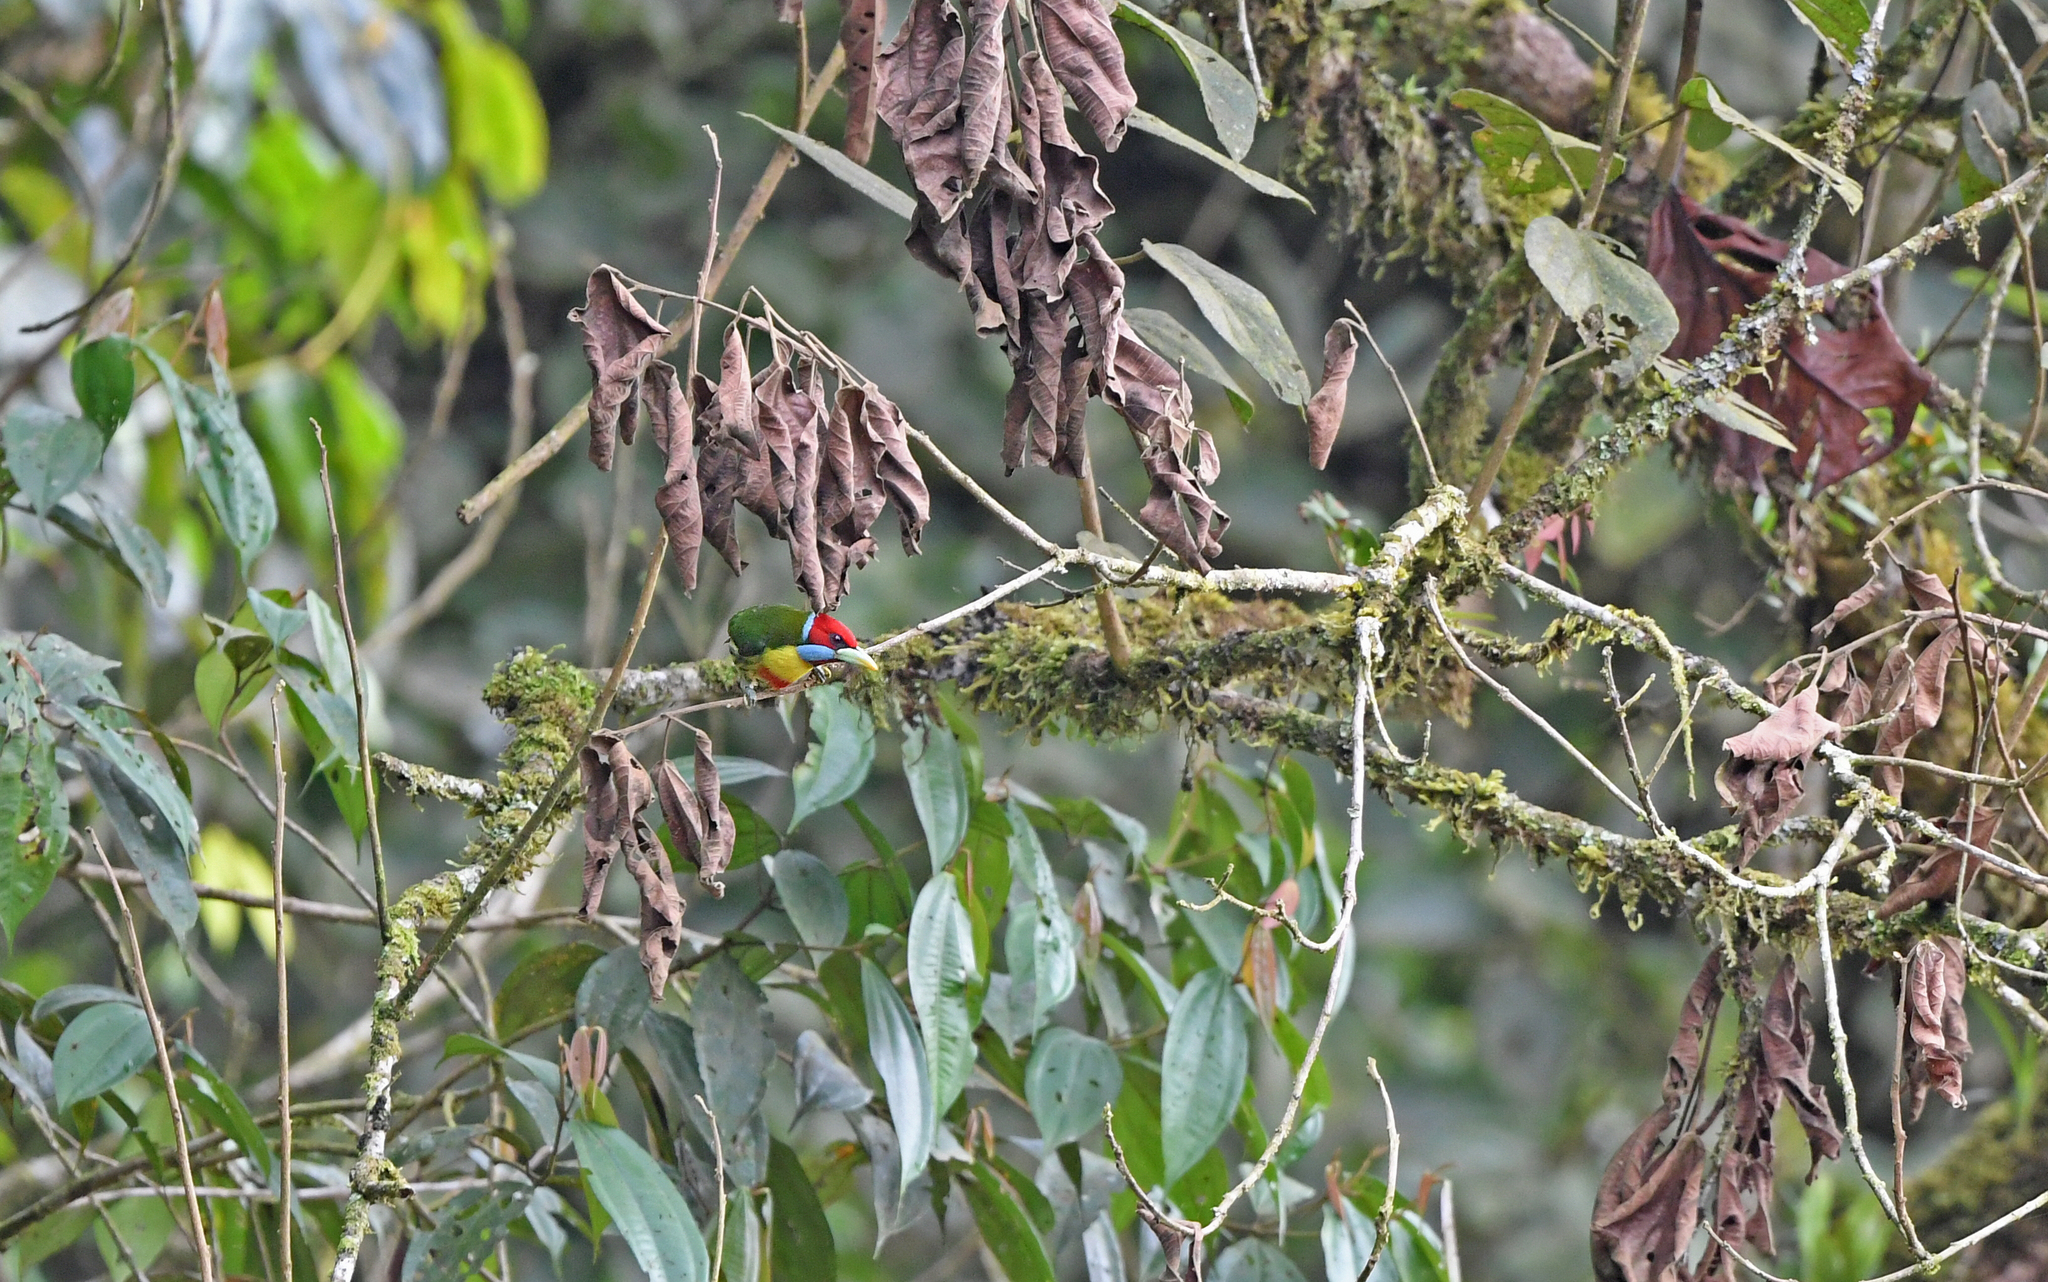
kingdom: Animalia
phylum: Chordata
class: Aves
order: Piciformes
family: Capitonidae
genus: Eubucco
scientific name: Eubucco versicolor
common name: Versicolored barbet
